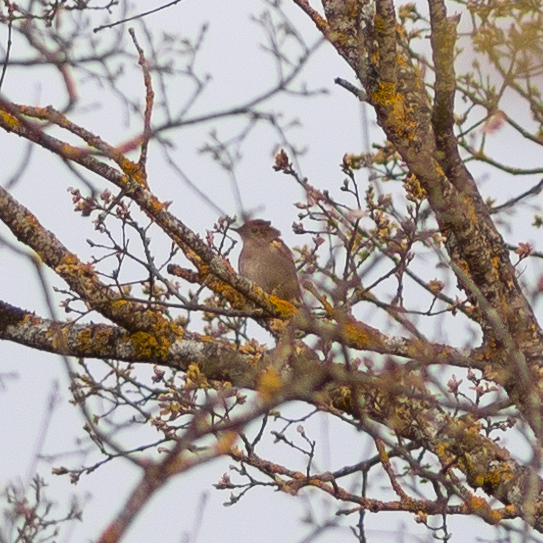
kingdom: Animalia
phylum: Chordata
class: Aves
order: Passeriformes
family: Muscicapidae
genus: Luscinia
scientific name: Luscinia megarhynchos
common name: Common nightingale
